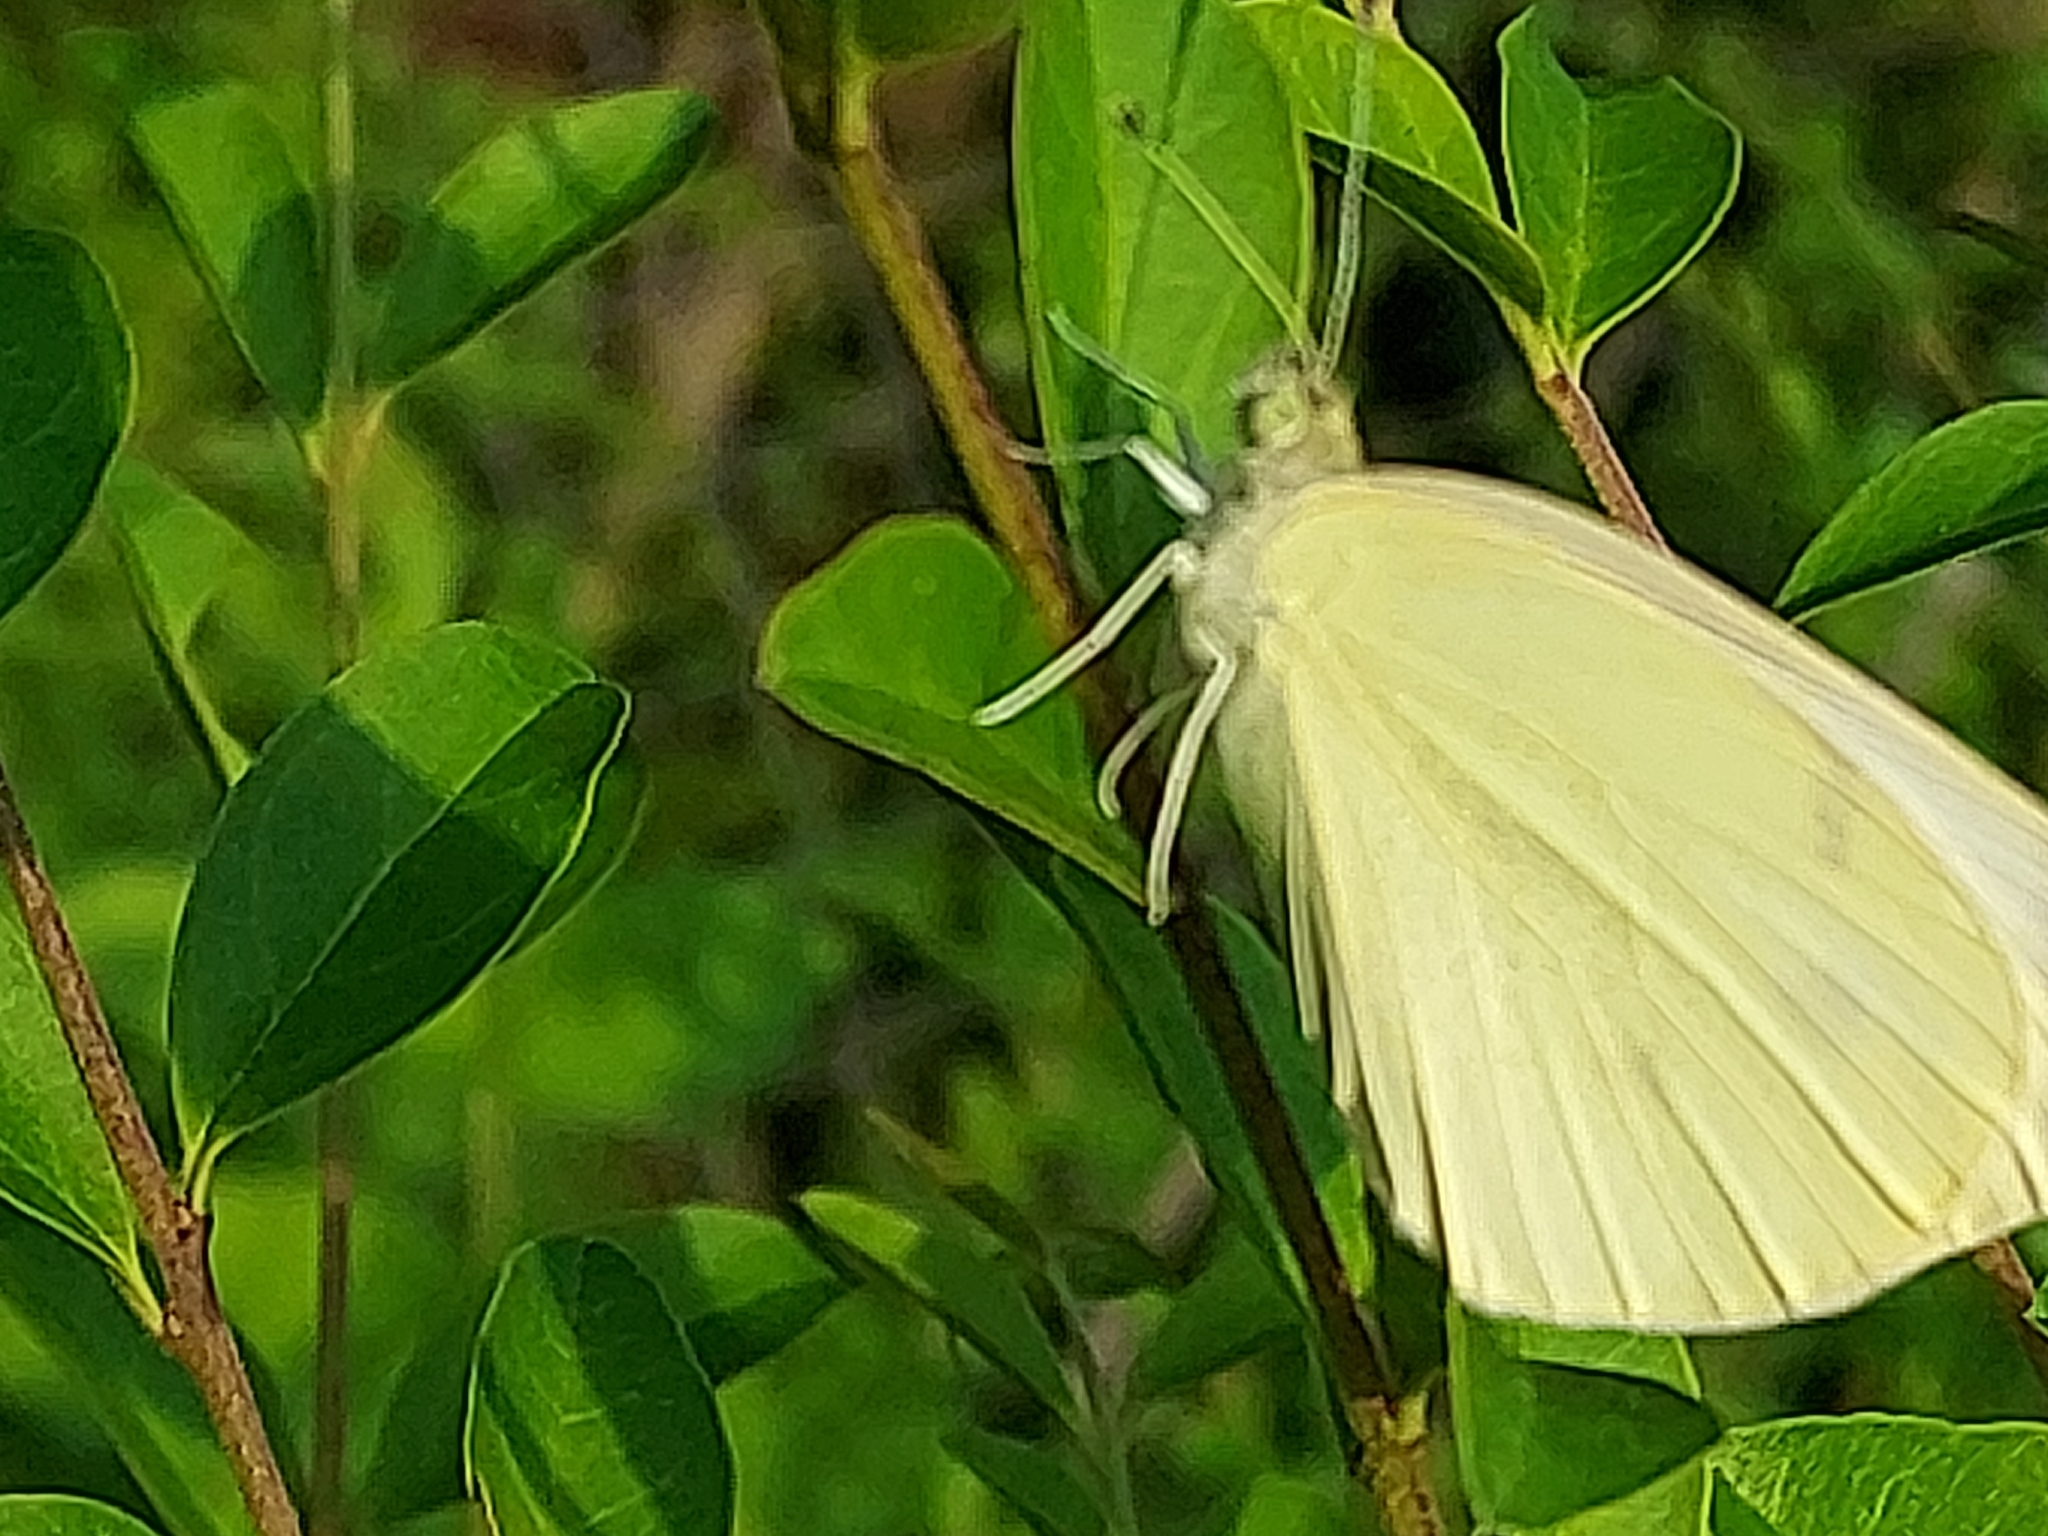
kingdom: Animalia
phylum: Arthropoda
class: Insecta
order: Lepidoptera
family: Pieridae
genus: Pieris
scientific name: Pieris rapae
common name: Small white
